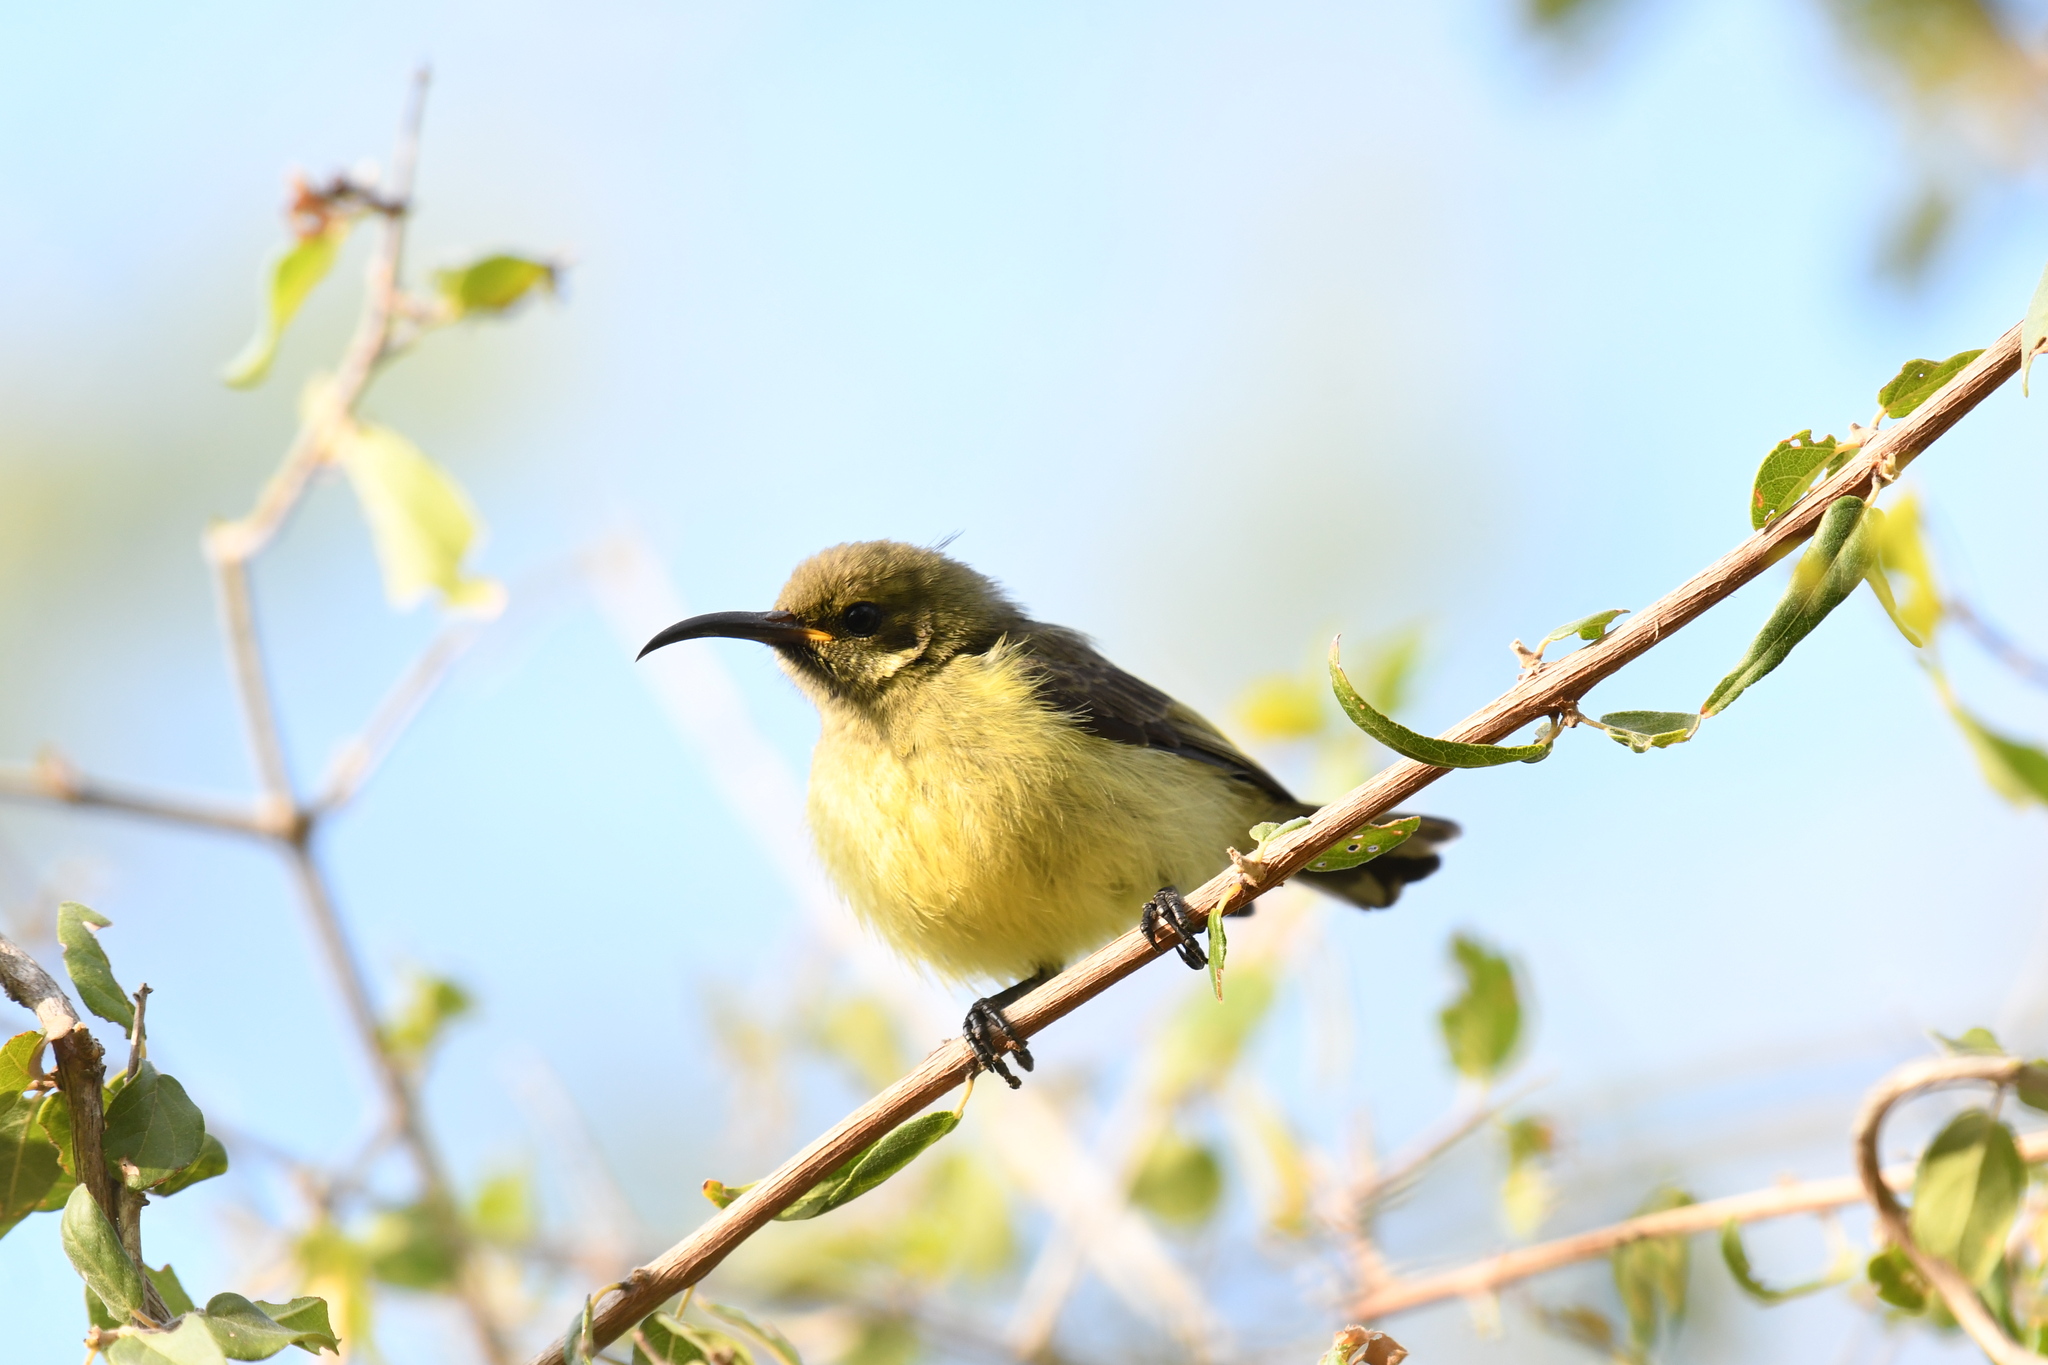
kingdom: Animalia
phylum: Chordata
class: Aves
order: Passeriformes
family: Nectariniidae
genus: Cinnyris
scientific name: Cinnyris sovimanga
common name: Souimanga sunbird
